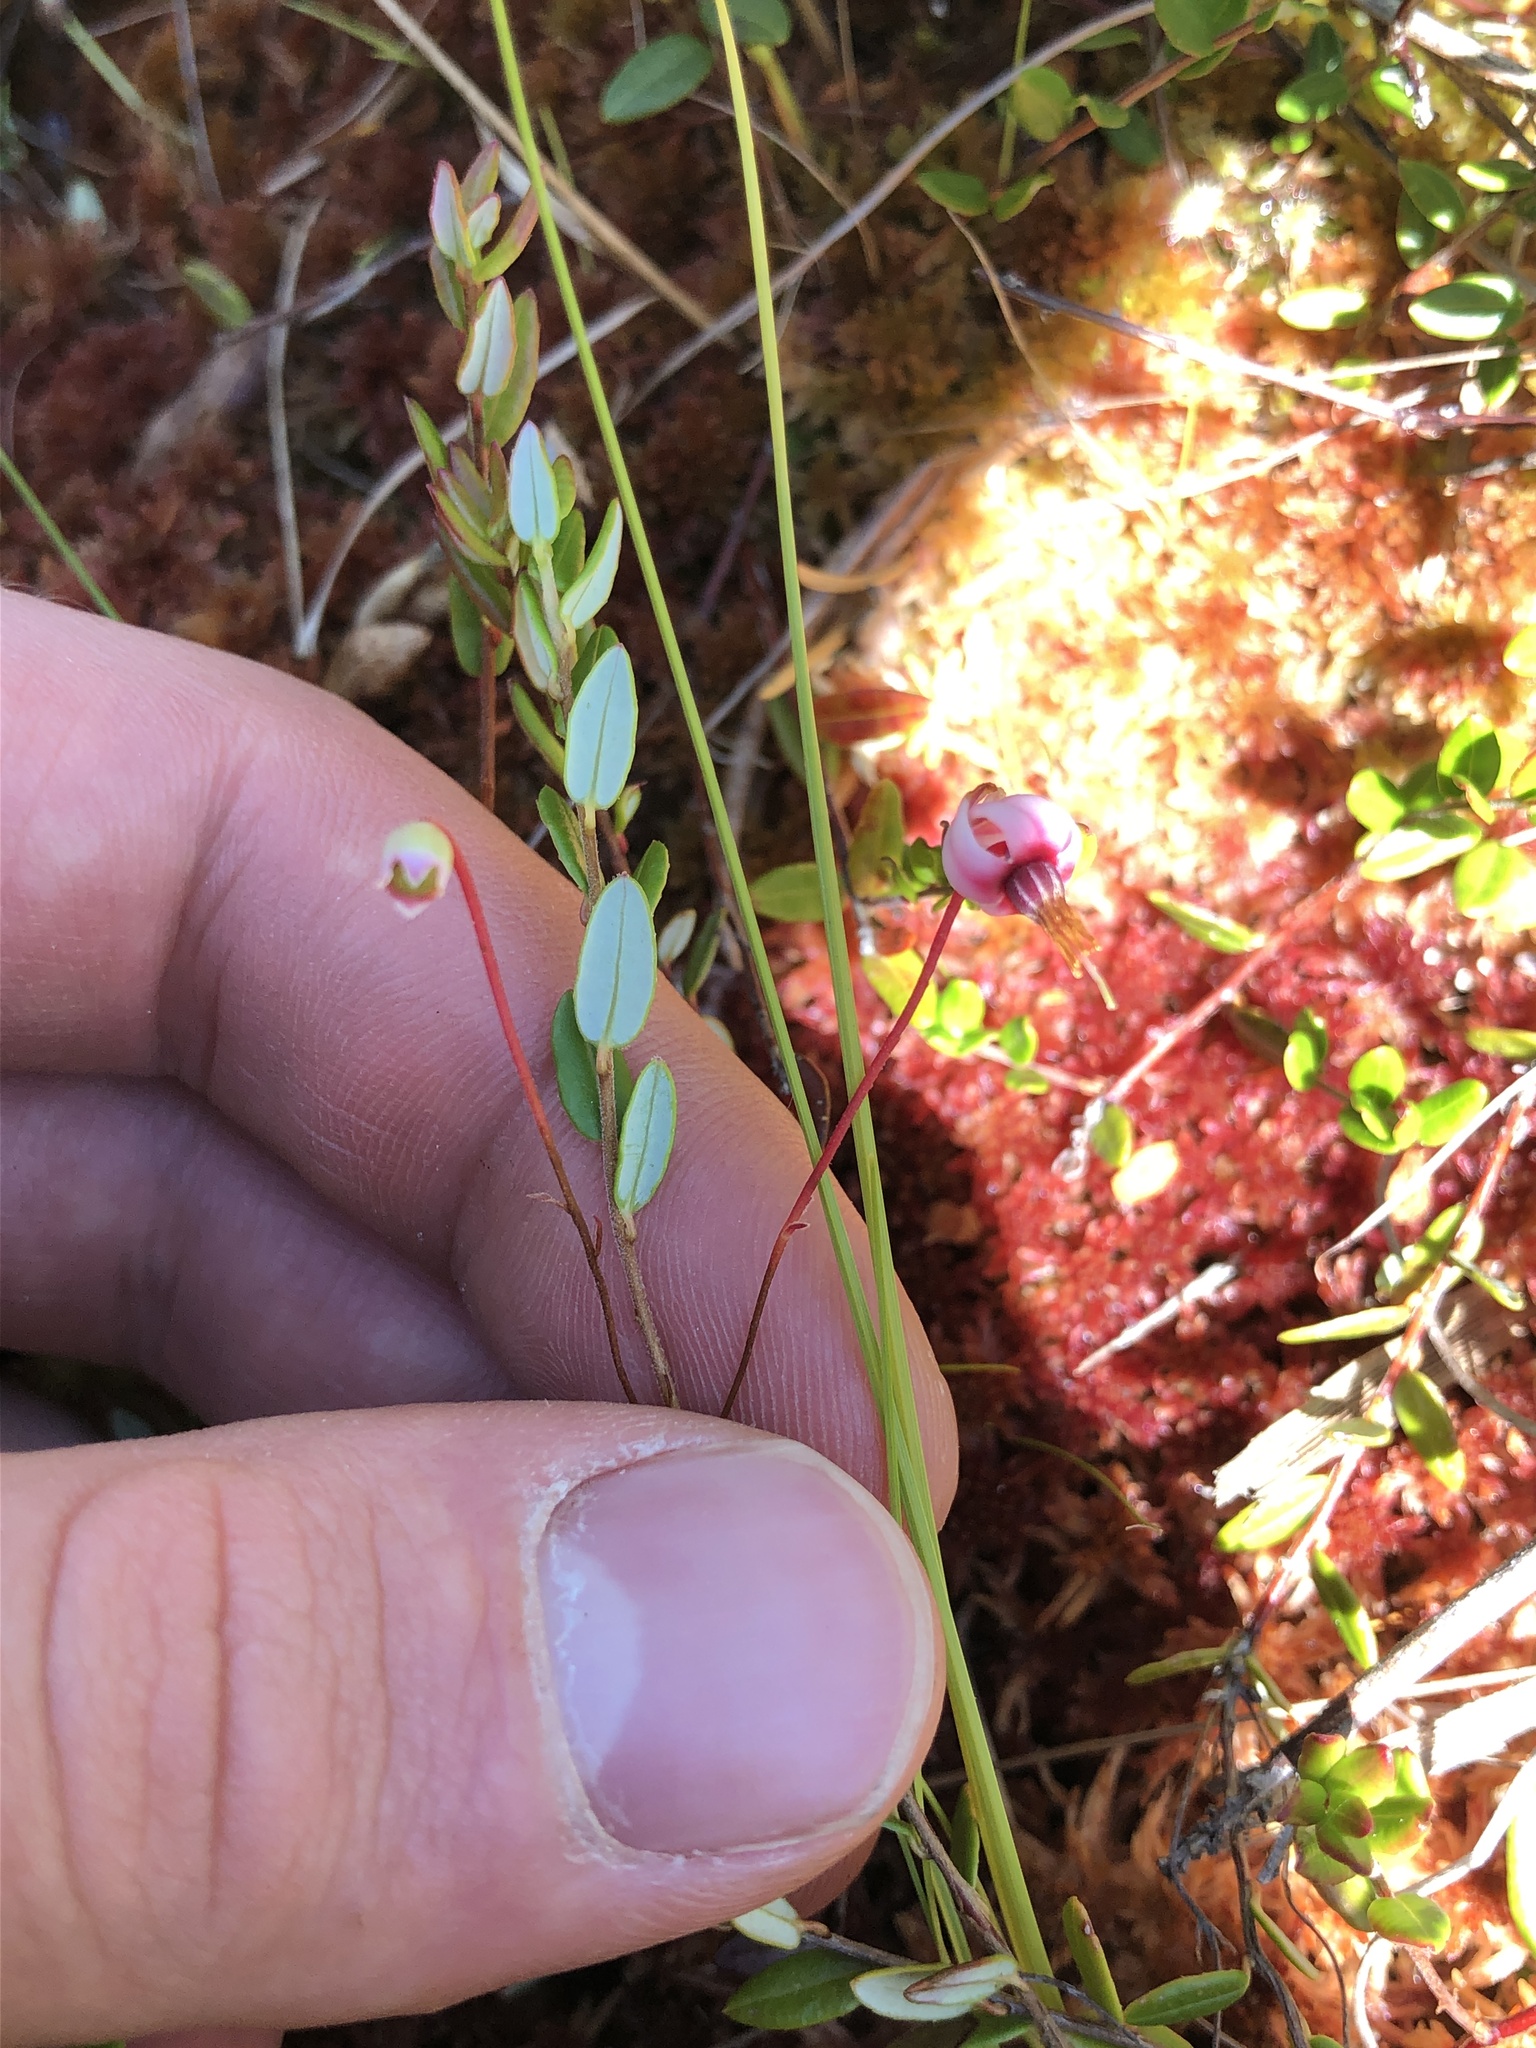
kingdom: Plantae
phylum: Tracheophyta
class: Magnoliopsida
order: Ericales
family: Ericaceae
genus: Vaccinium
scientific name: Vaccinium oxycoccos
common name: Cranberry
